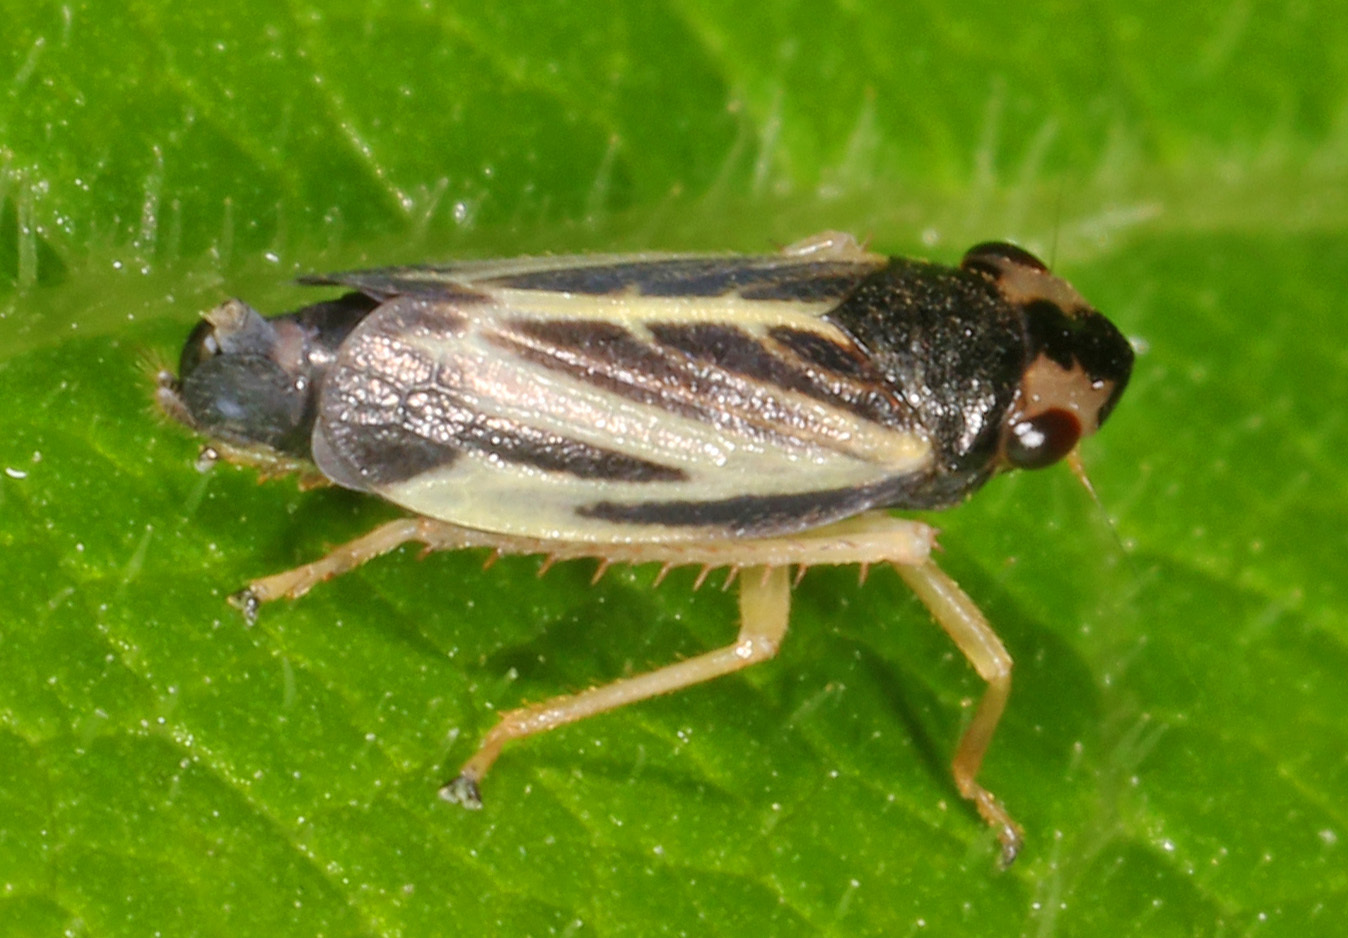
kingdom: Animalia
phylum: Arthropoda
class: Insecta
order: Hemiptera
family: Cicadellidae
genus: Evacanthus
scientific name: Evacanthus nigramericanus
